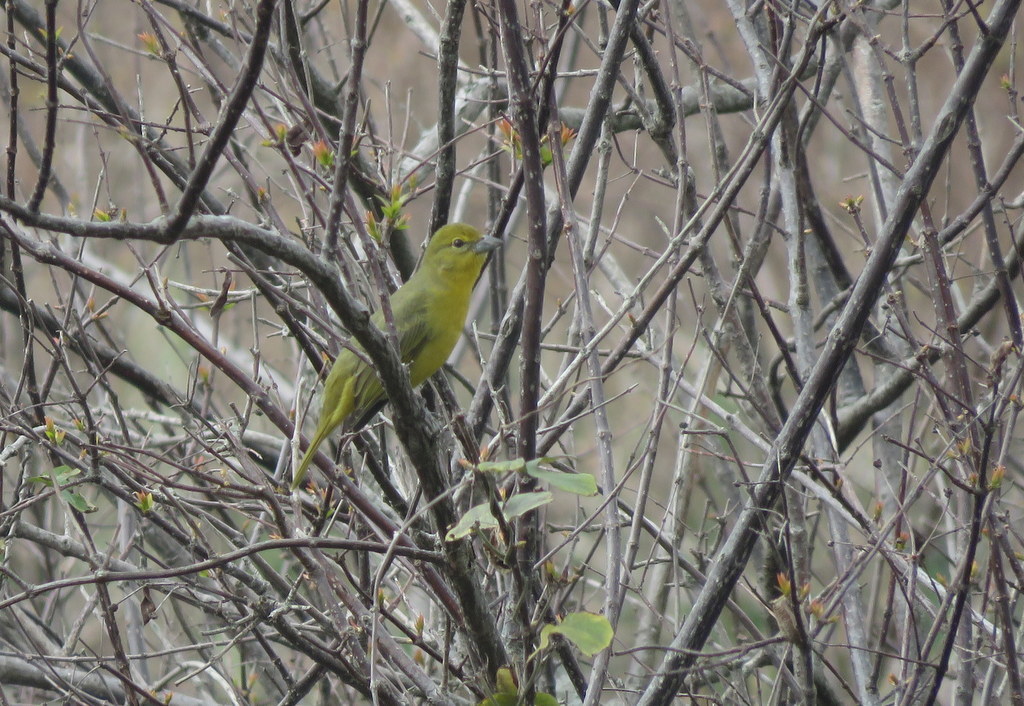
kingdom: Animalia
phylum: Chordata
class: Aves
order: Passeriformes
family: Cardinalidae
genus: Piranga
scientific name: Piranga flava
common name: Red tanager
